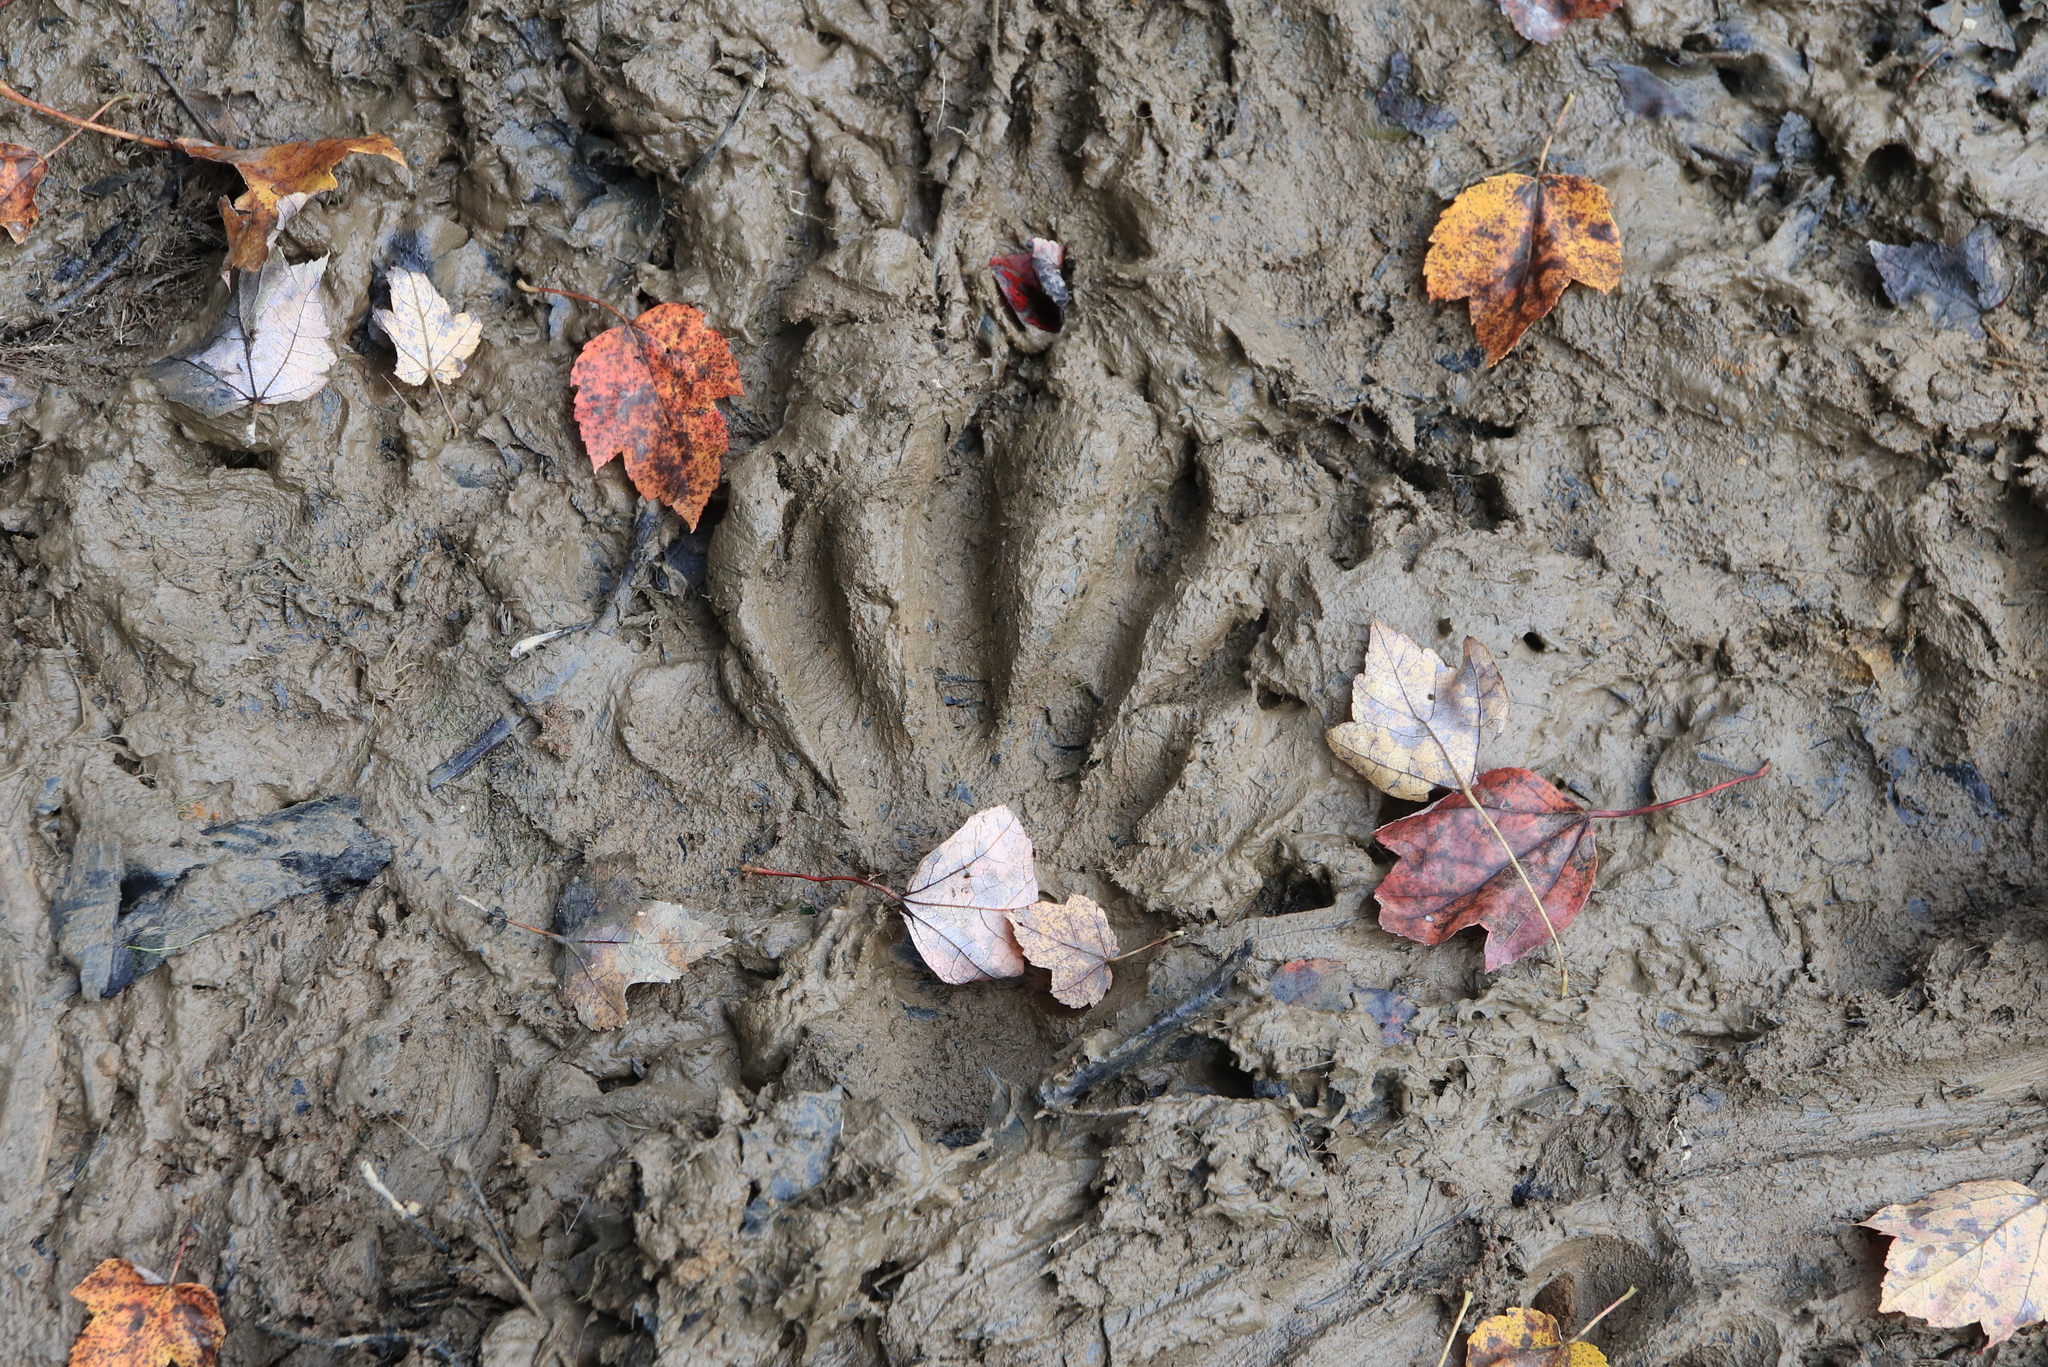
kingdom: Animalia
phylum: Chordata
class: Mammalia
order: Rodentia
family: Castoridae
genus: Castor
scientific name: Castor canadensis
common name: American beaver
